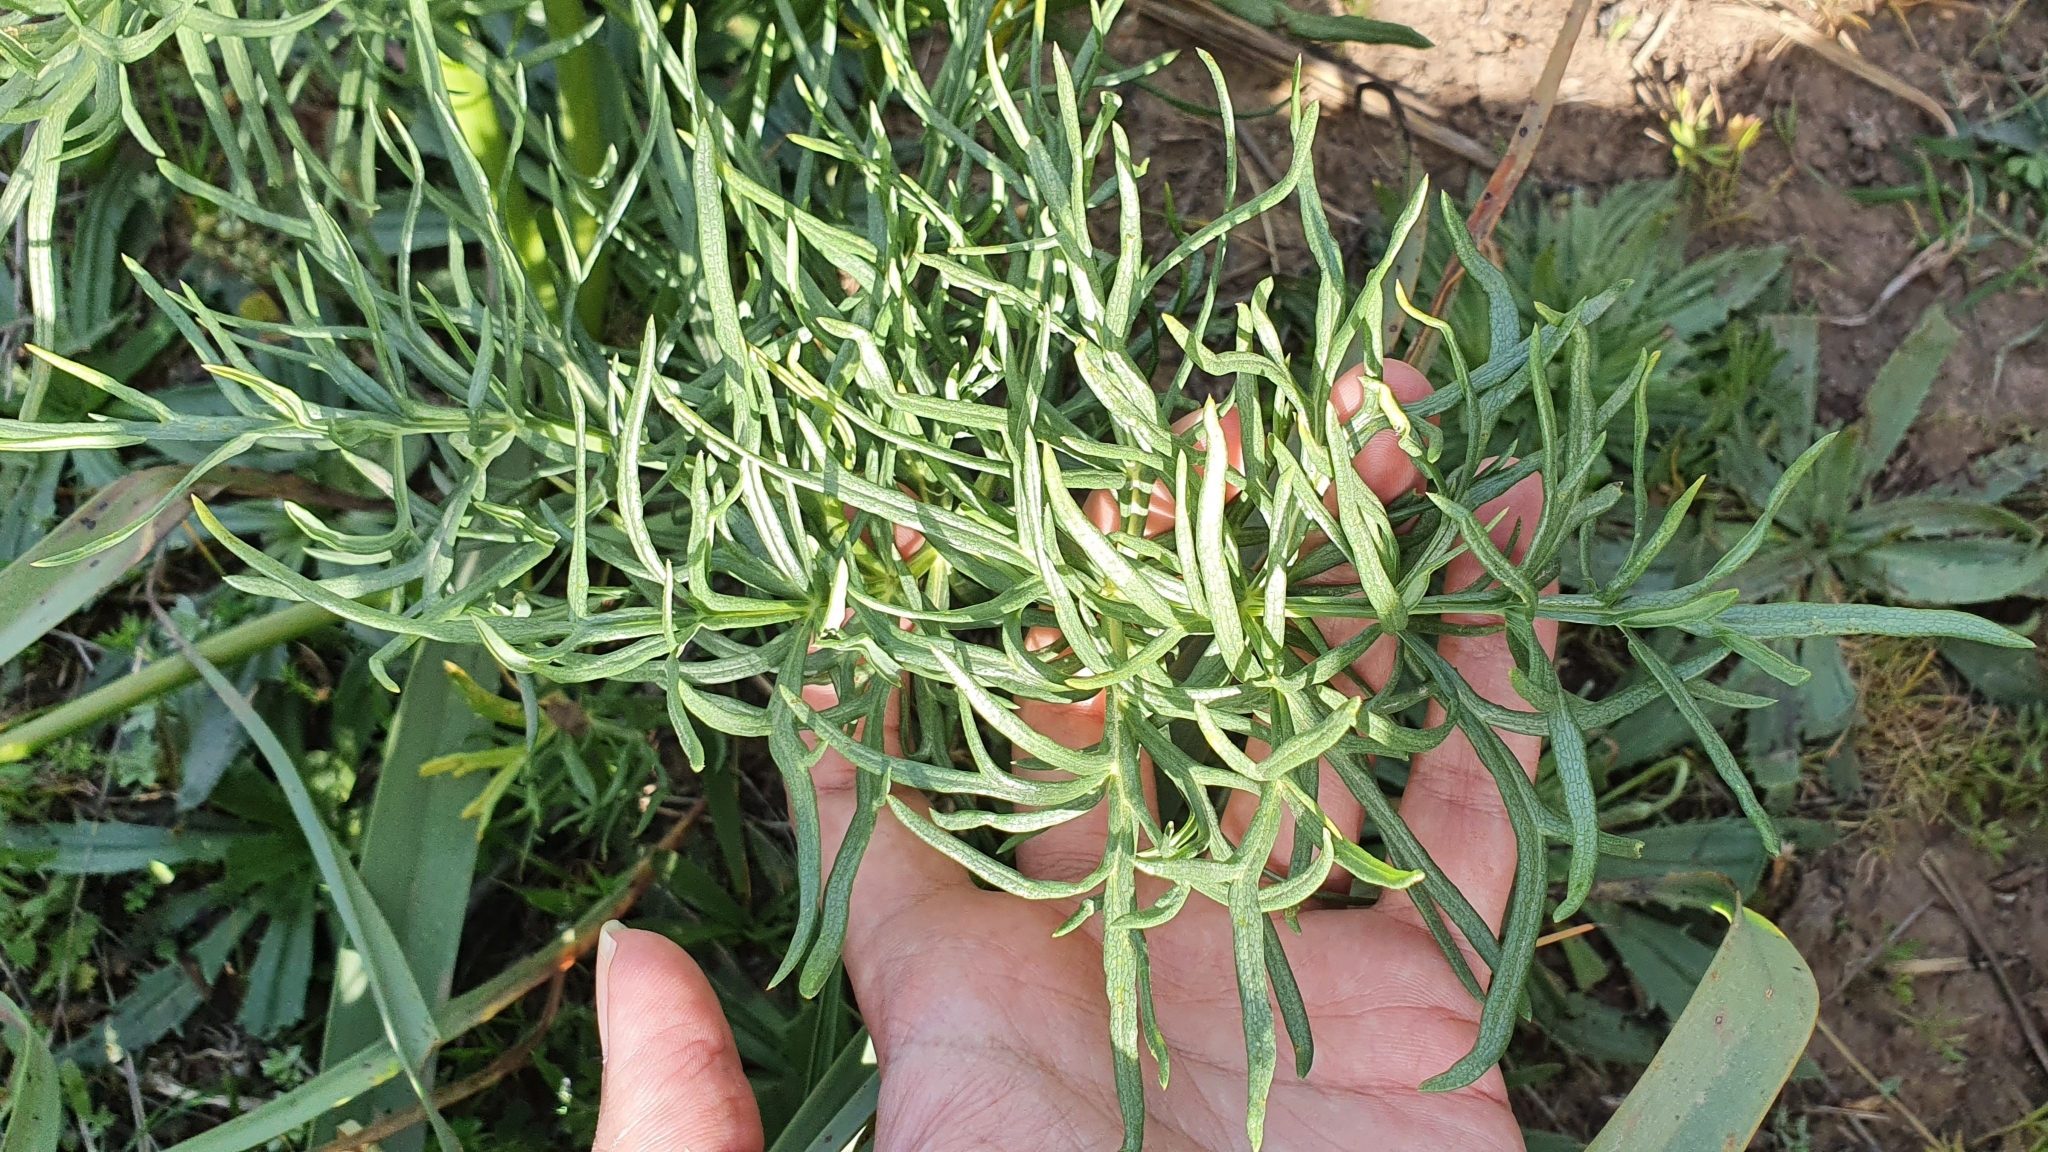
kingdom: Plantae
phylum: Tracheophyta
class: Magnoliopsida
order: Apiales
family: Apiaceae
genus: Thapsia
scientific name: Thapsia garganica
